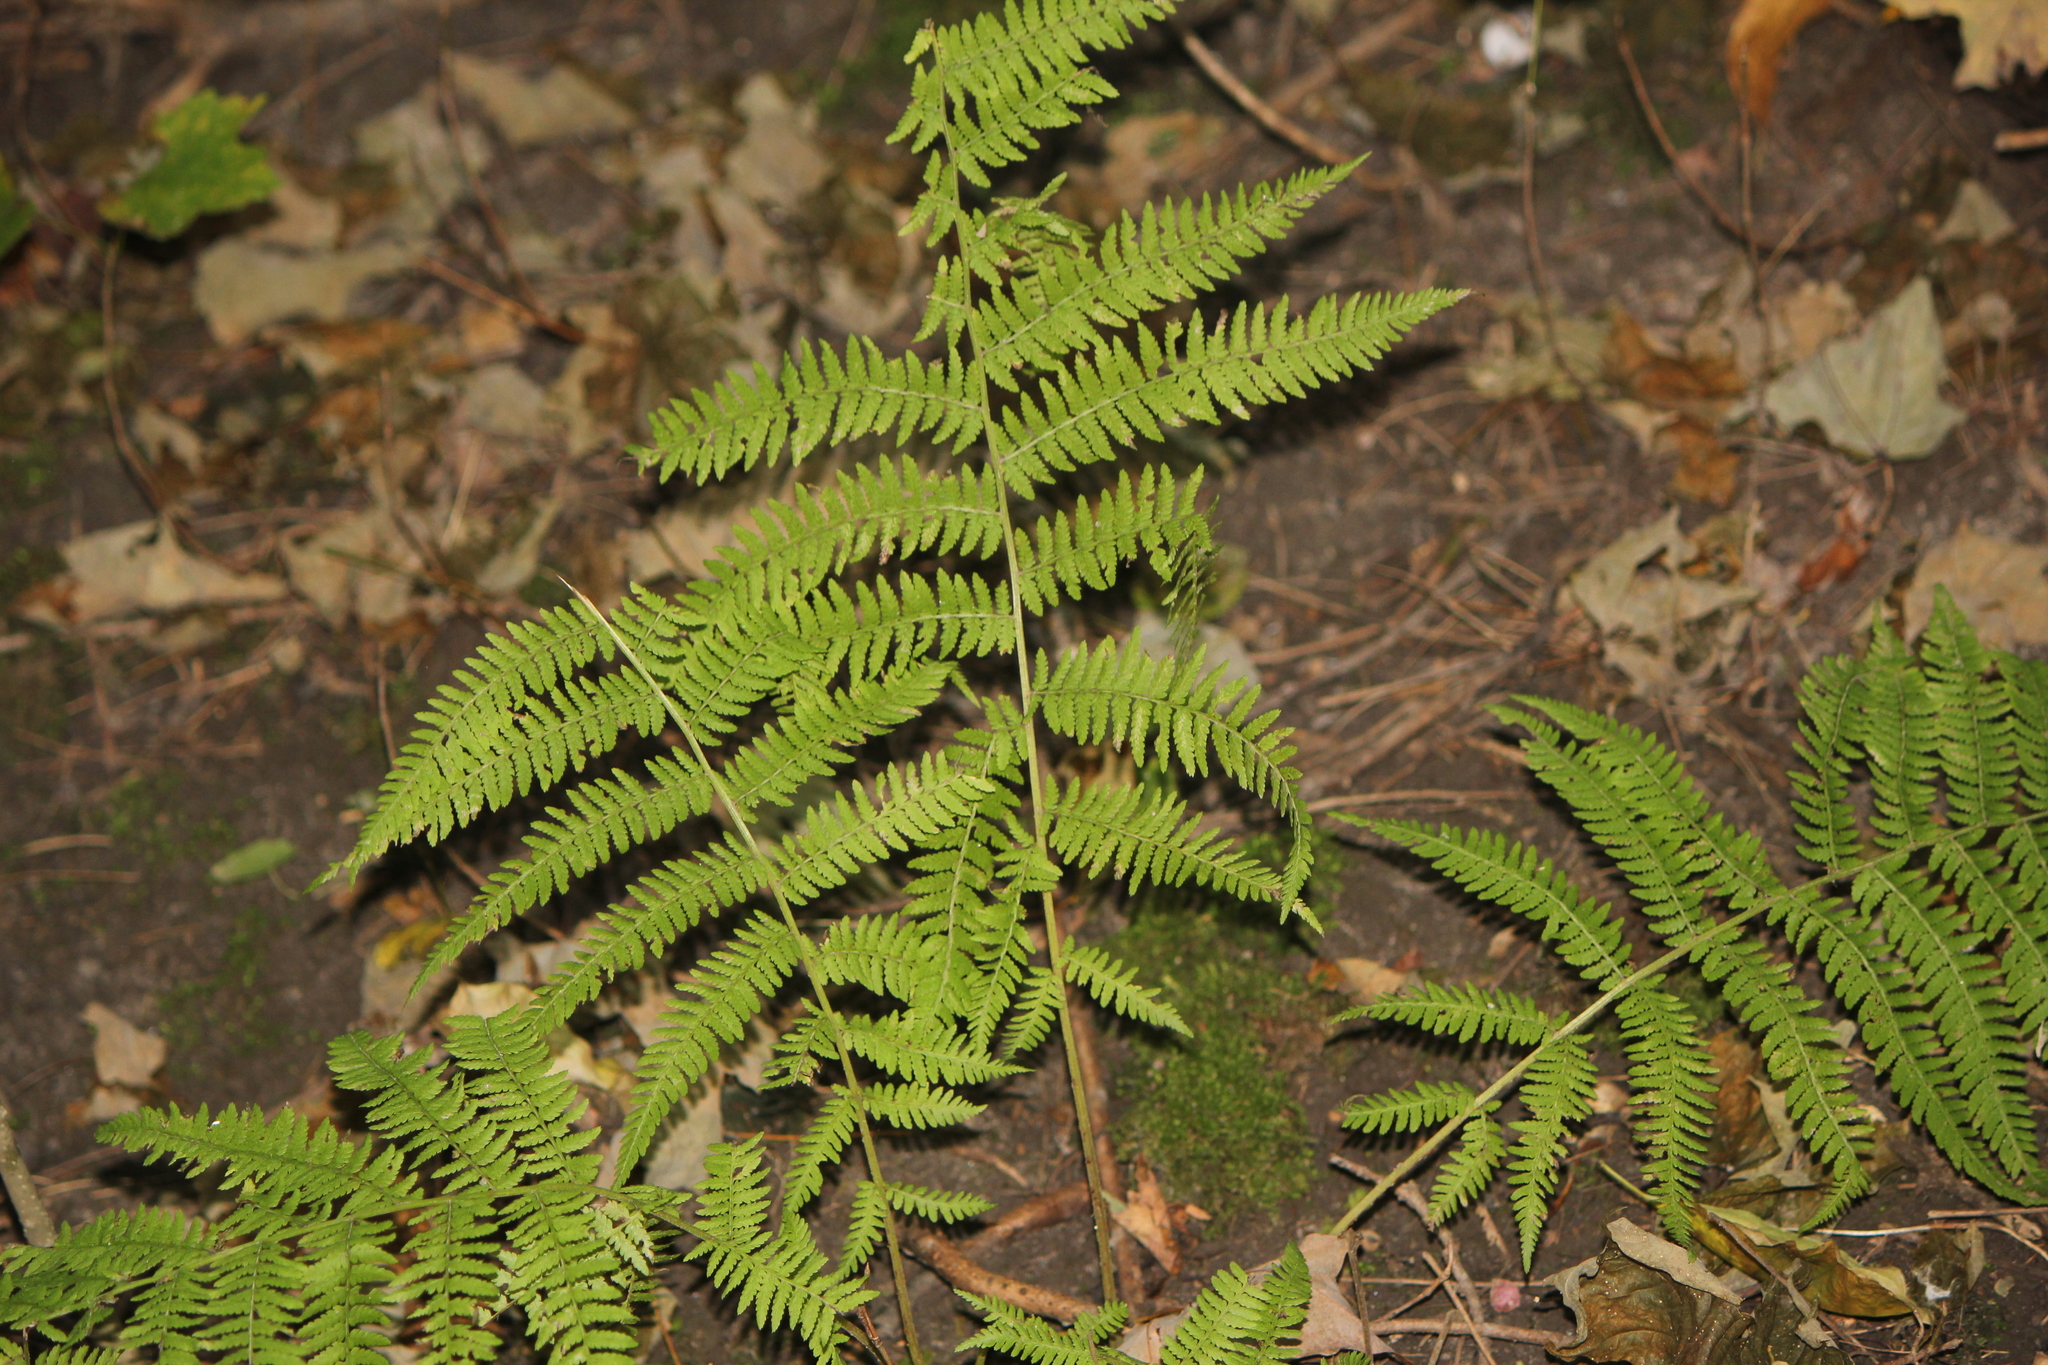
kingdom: Plantae
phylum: Tracheophyta
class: Polypodiopsida
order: Polypodiales
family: Athyriaceae
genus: Athyrium
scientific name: Athyrium angustum
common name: Northern lady fern
